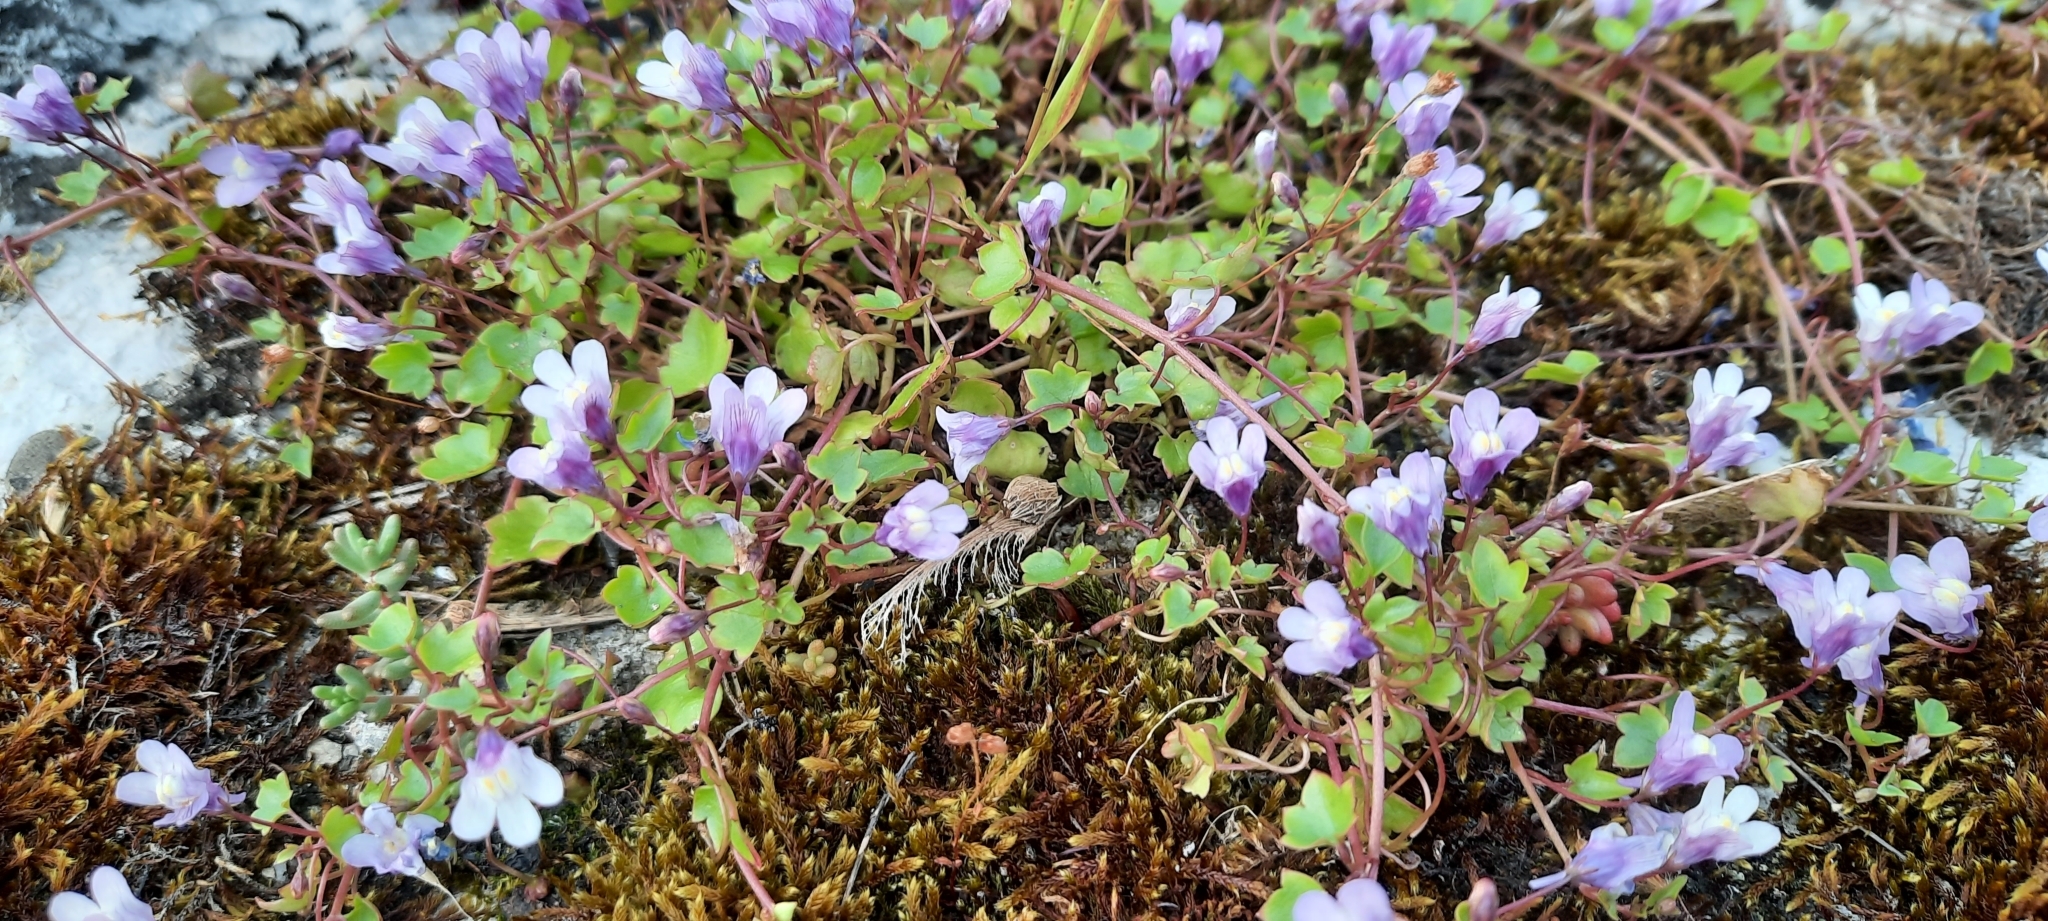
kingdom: Plantae
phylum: Tracheophyta
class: Magnoliopsida
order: Lamiales
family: Plantaginaceae
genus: Cymbalaria
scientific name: Cymbalaria muralis
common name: Ivy-leaved toadflax
